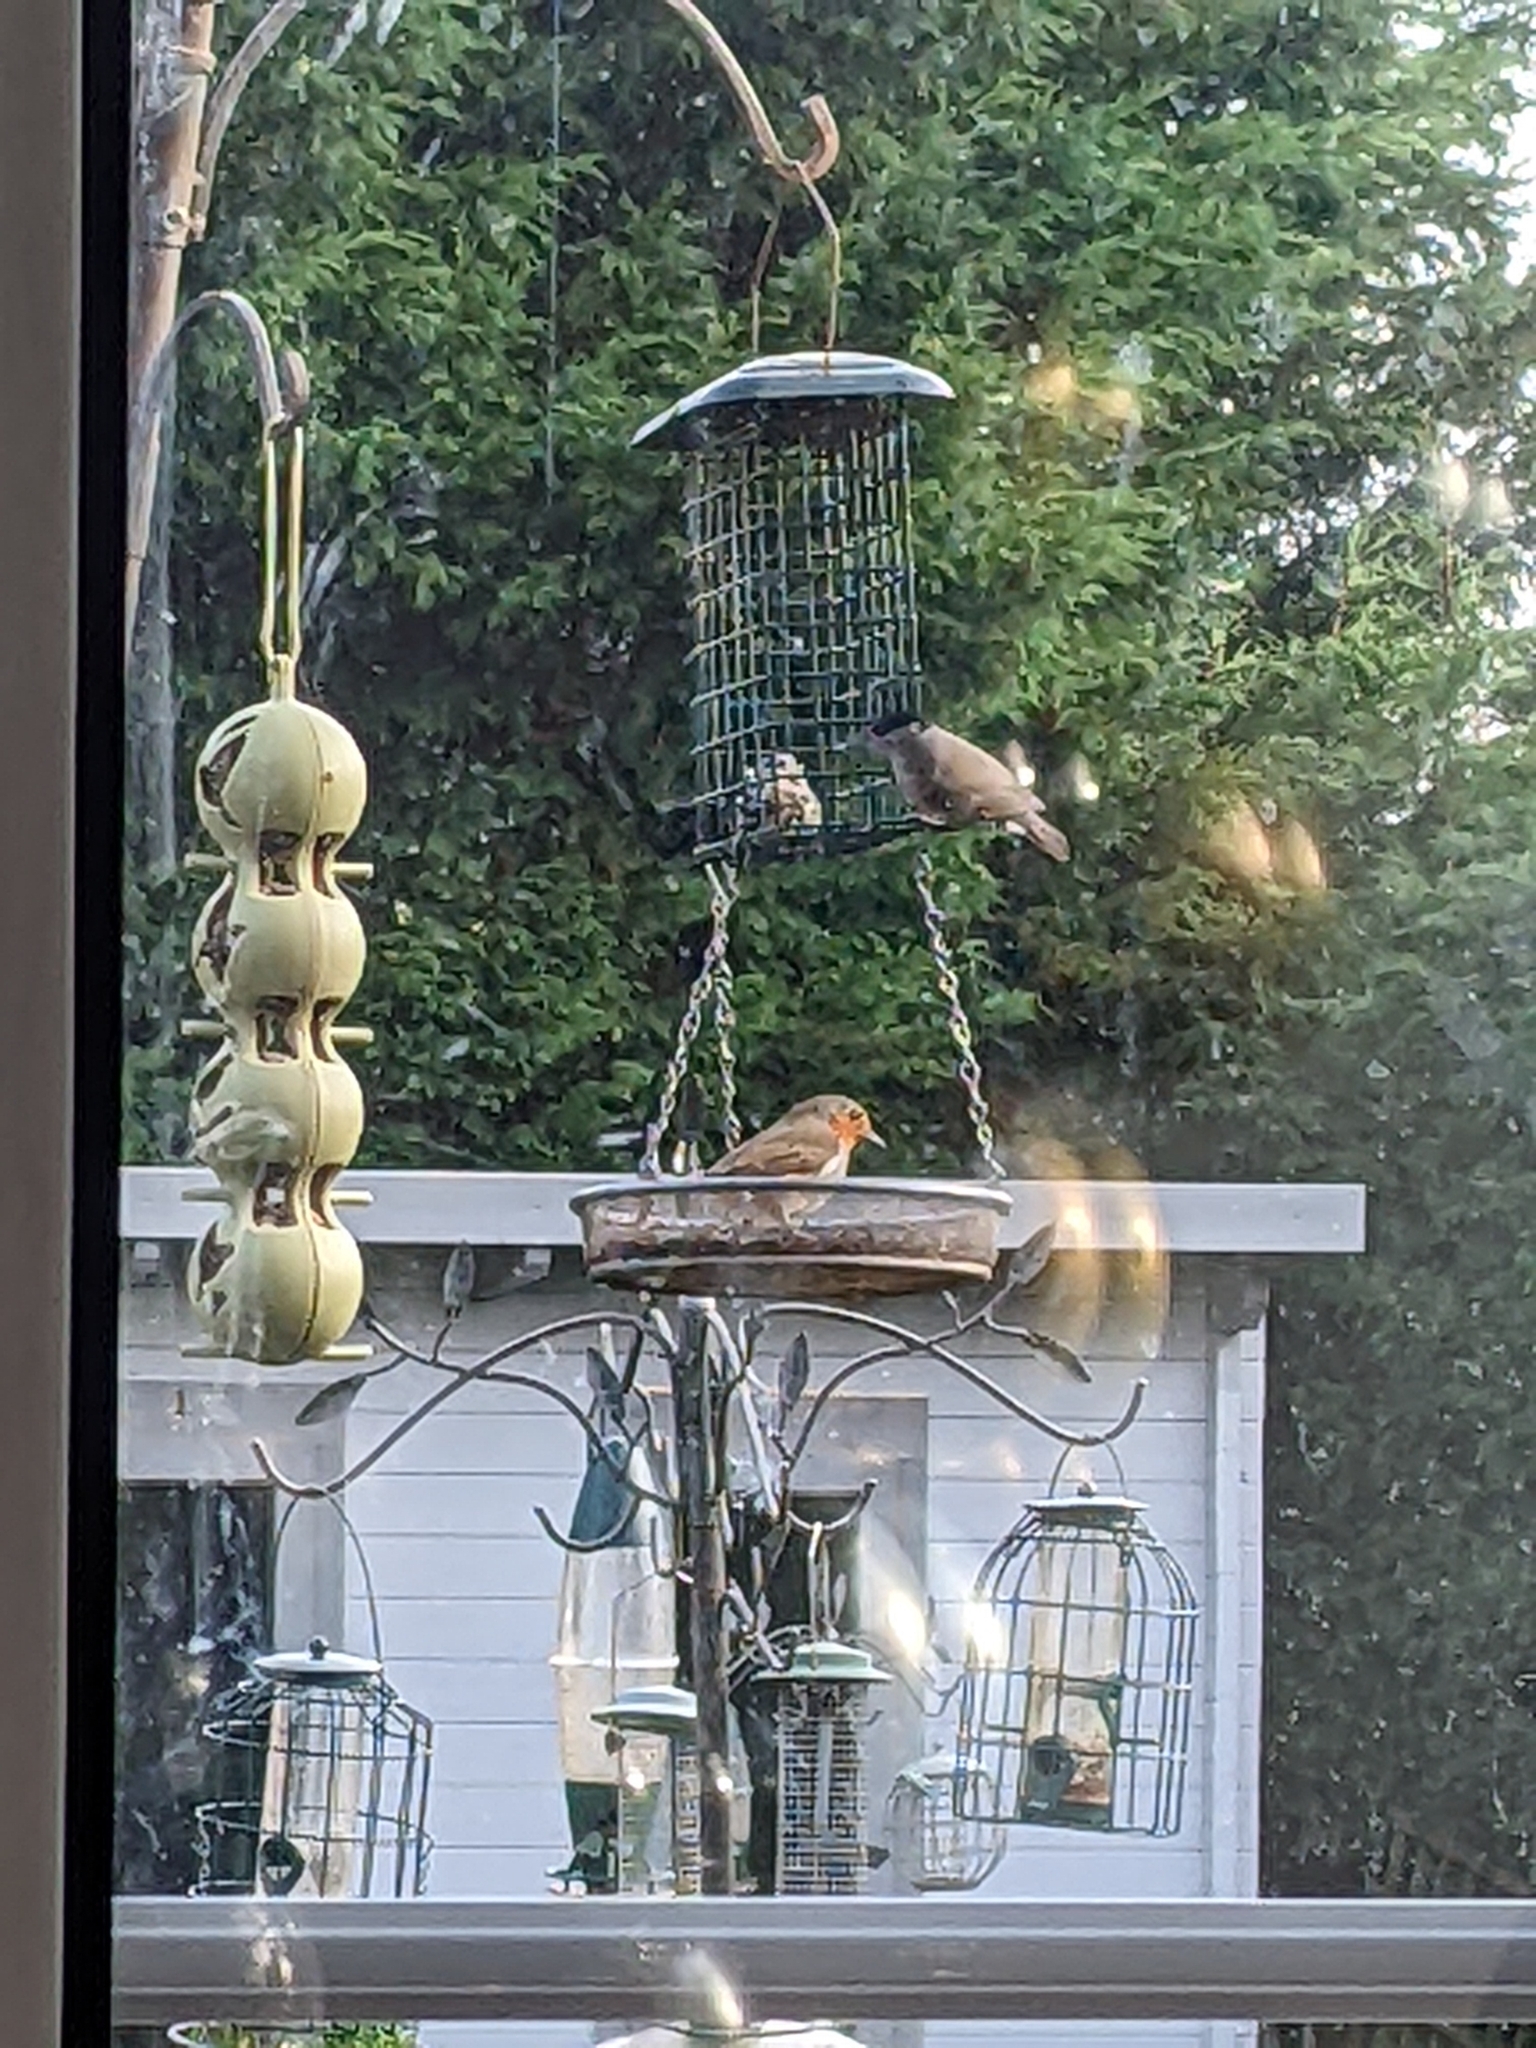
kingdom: Animalia
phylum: Chordata
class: Aves
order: Passeriformes
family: Muscicapidae
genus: Erithacus
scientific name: Erithacus rubecula
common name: European robin
